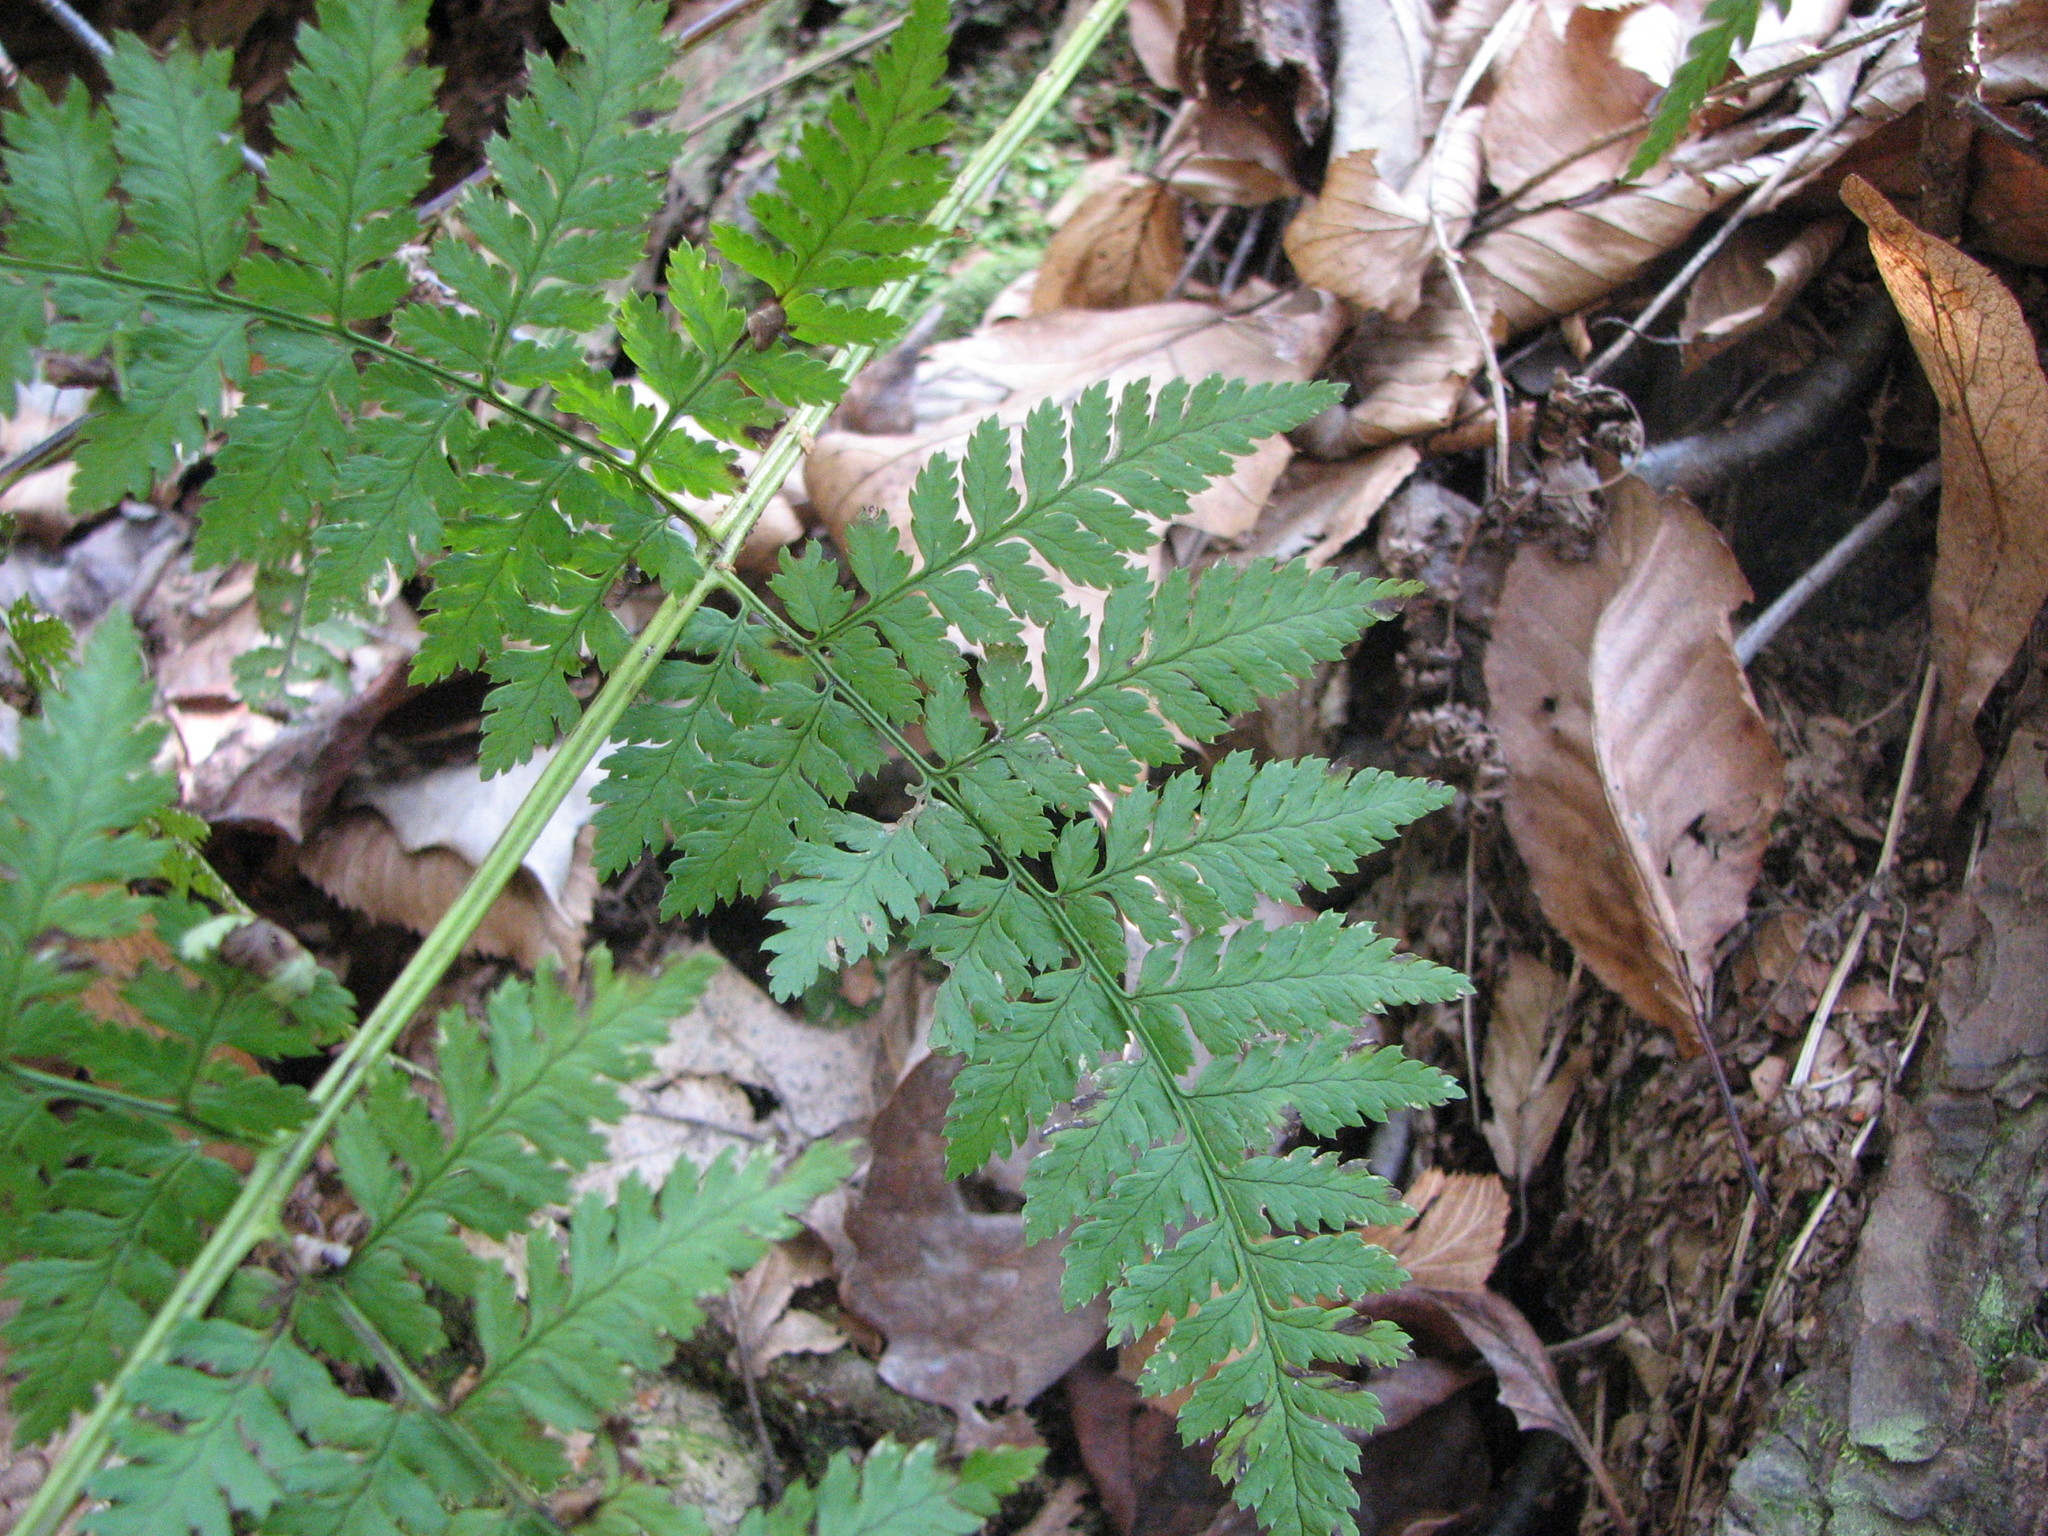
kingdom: Plantae
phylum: Tracheophyta
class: Polypodiopsida
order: Polypodiales
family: Dryopteridaceae
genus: Dryopteris
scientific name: Dryopteris intermedia
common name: Evergreen wood fern
